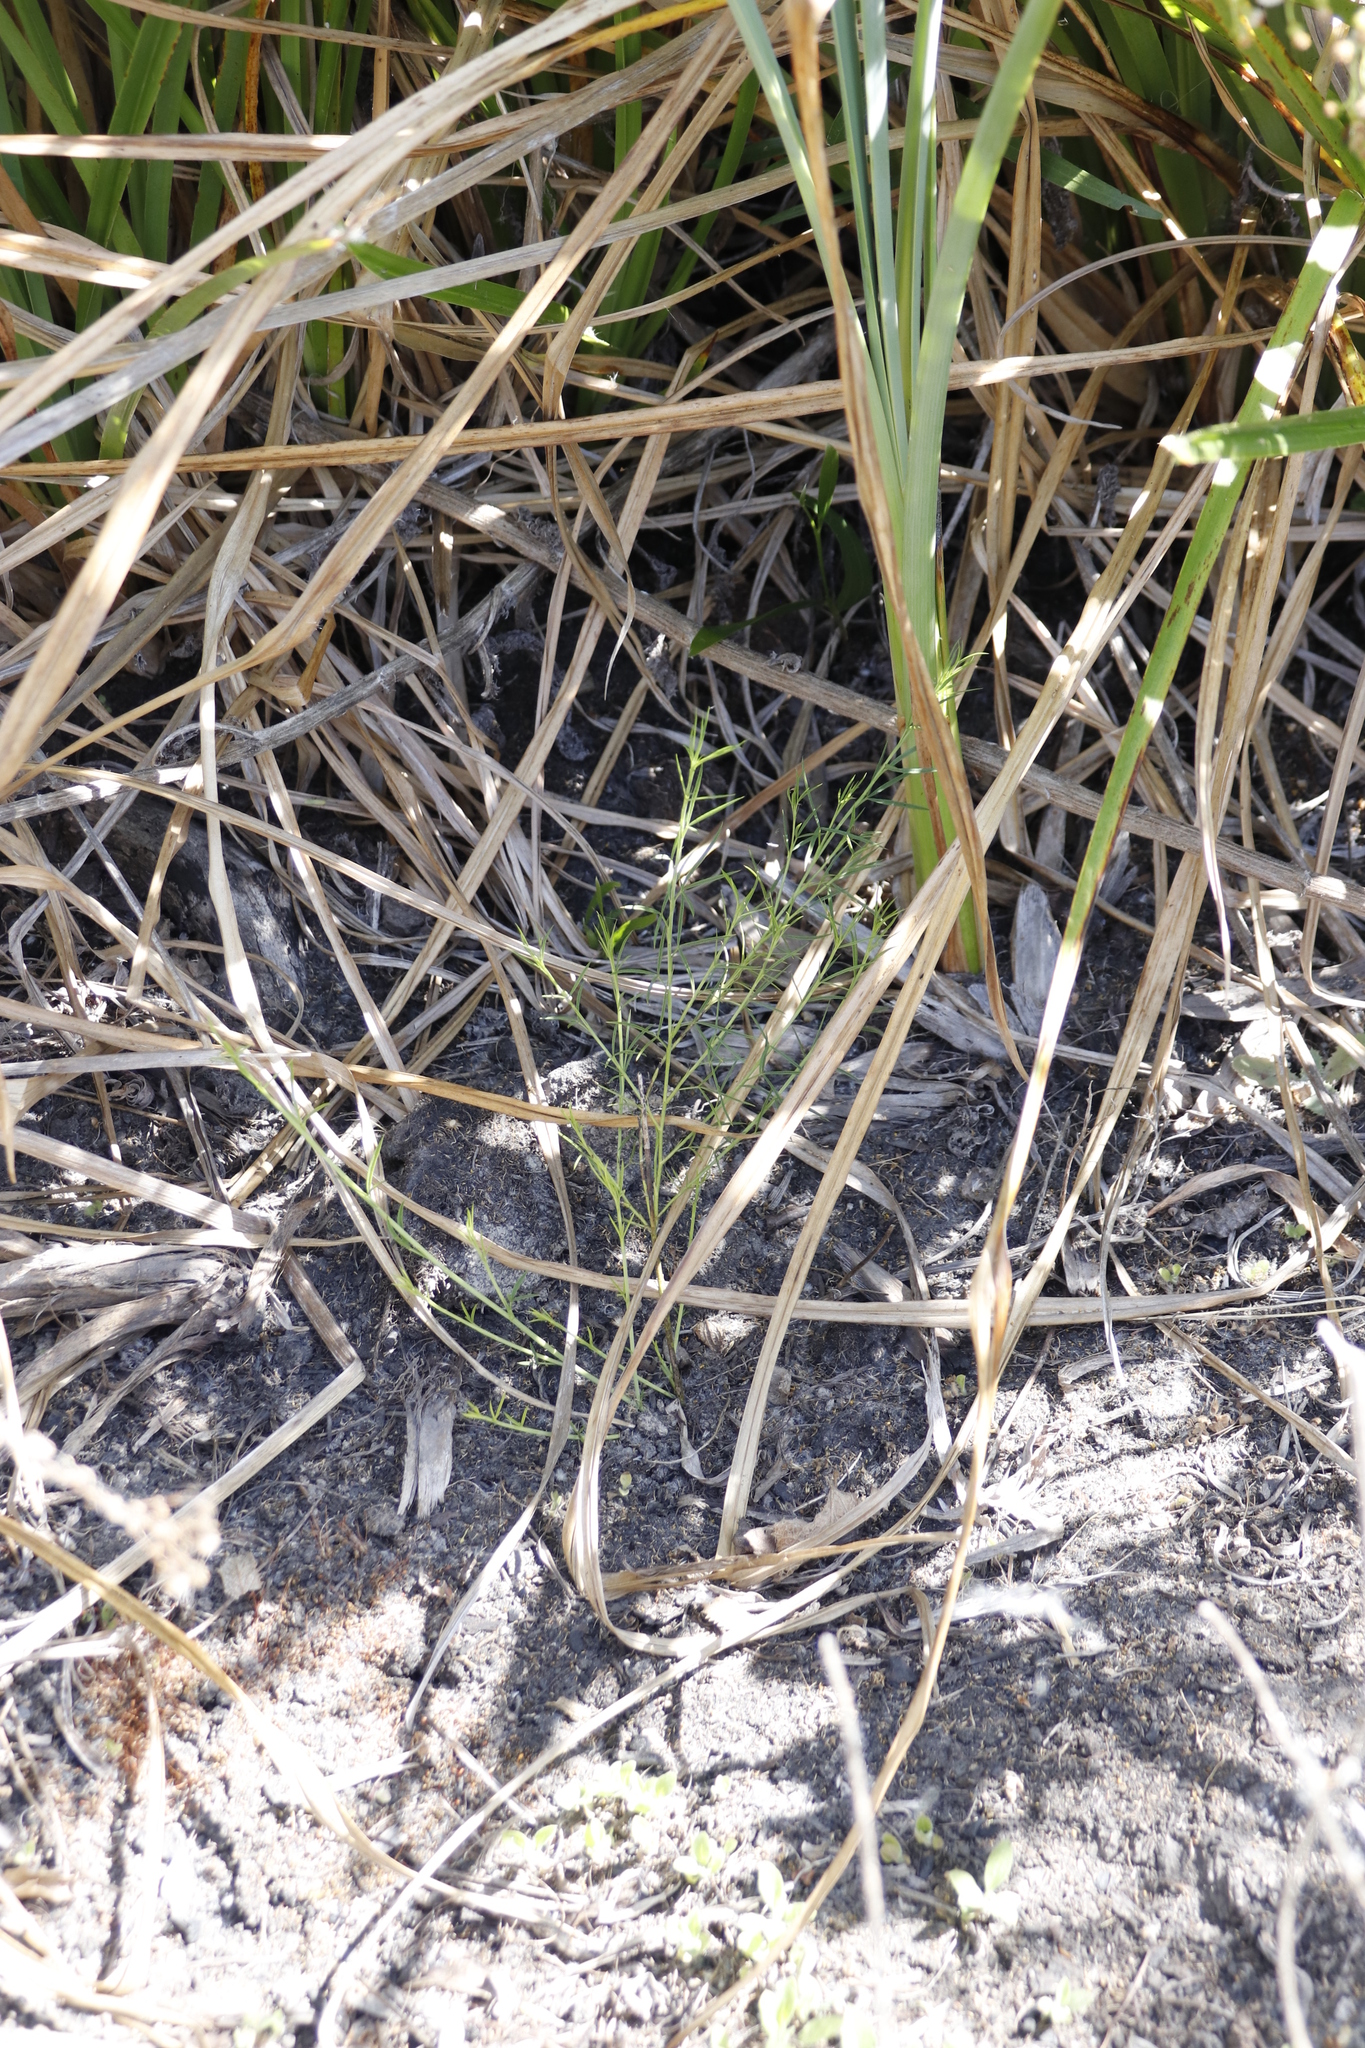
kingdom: Plantae
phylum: Tracheophyta
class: Magnoliopsida
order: Fabales
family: Fabaceae
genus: Psoralea
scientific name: Psoralea fascicularis
